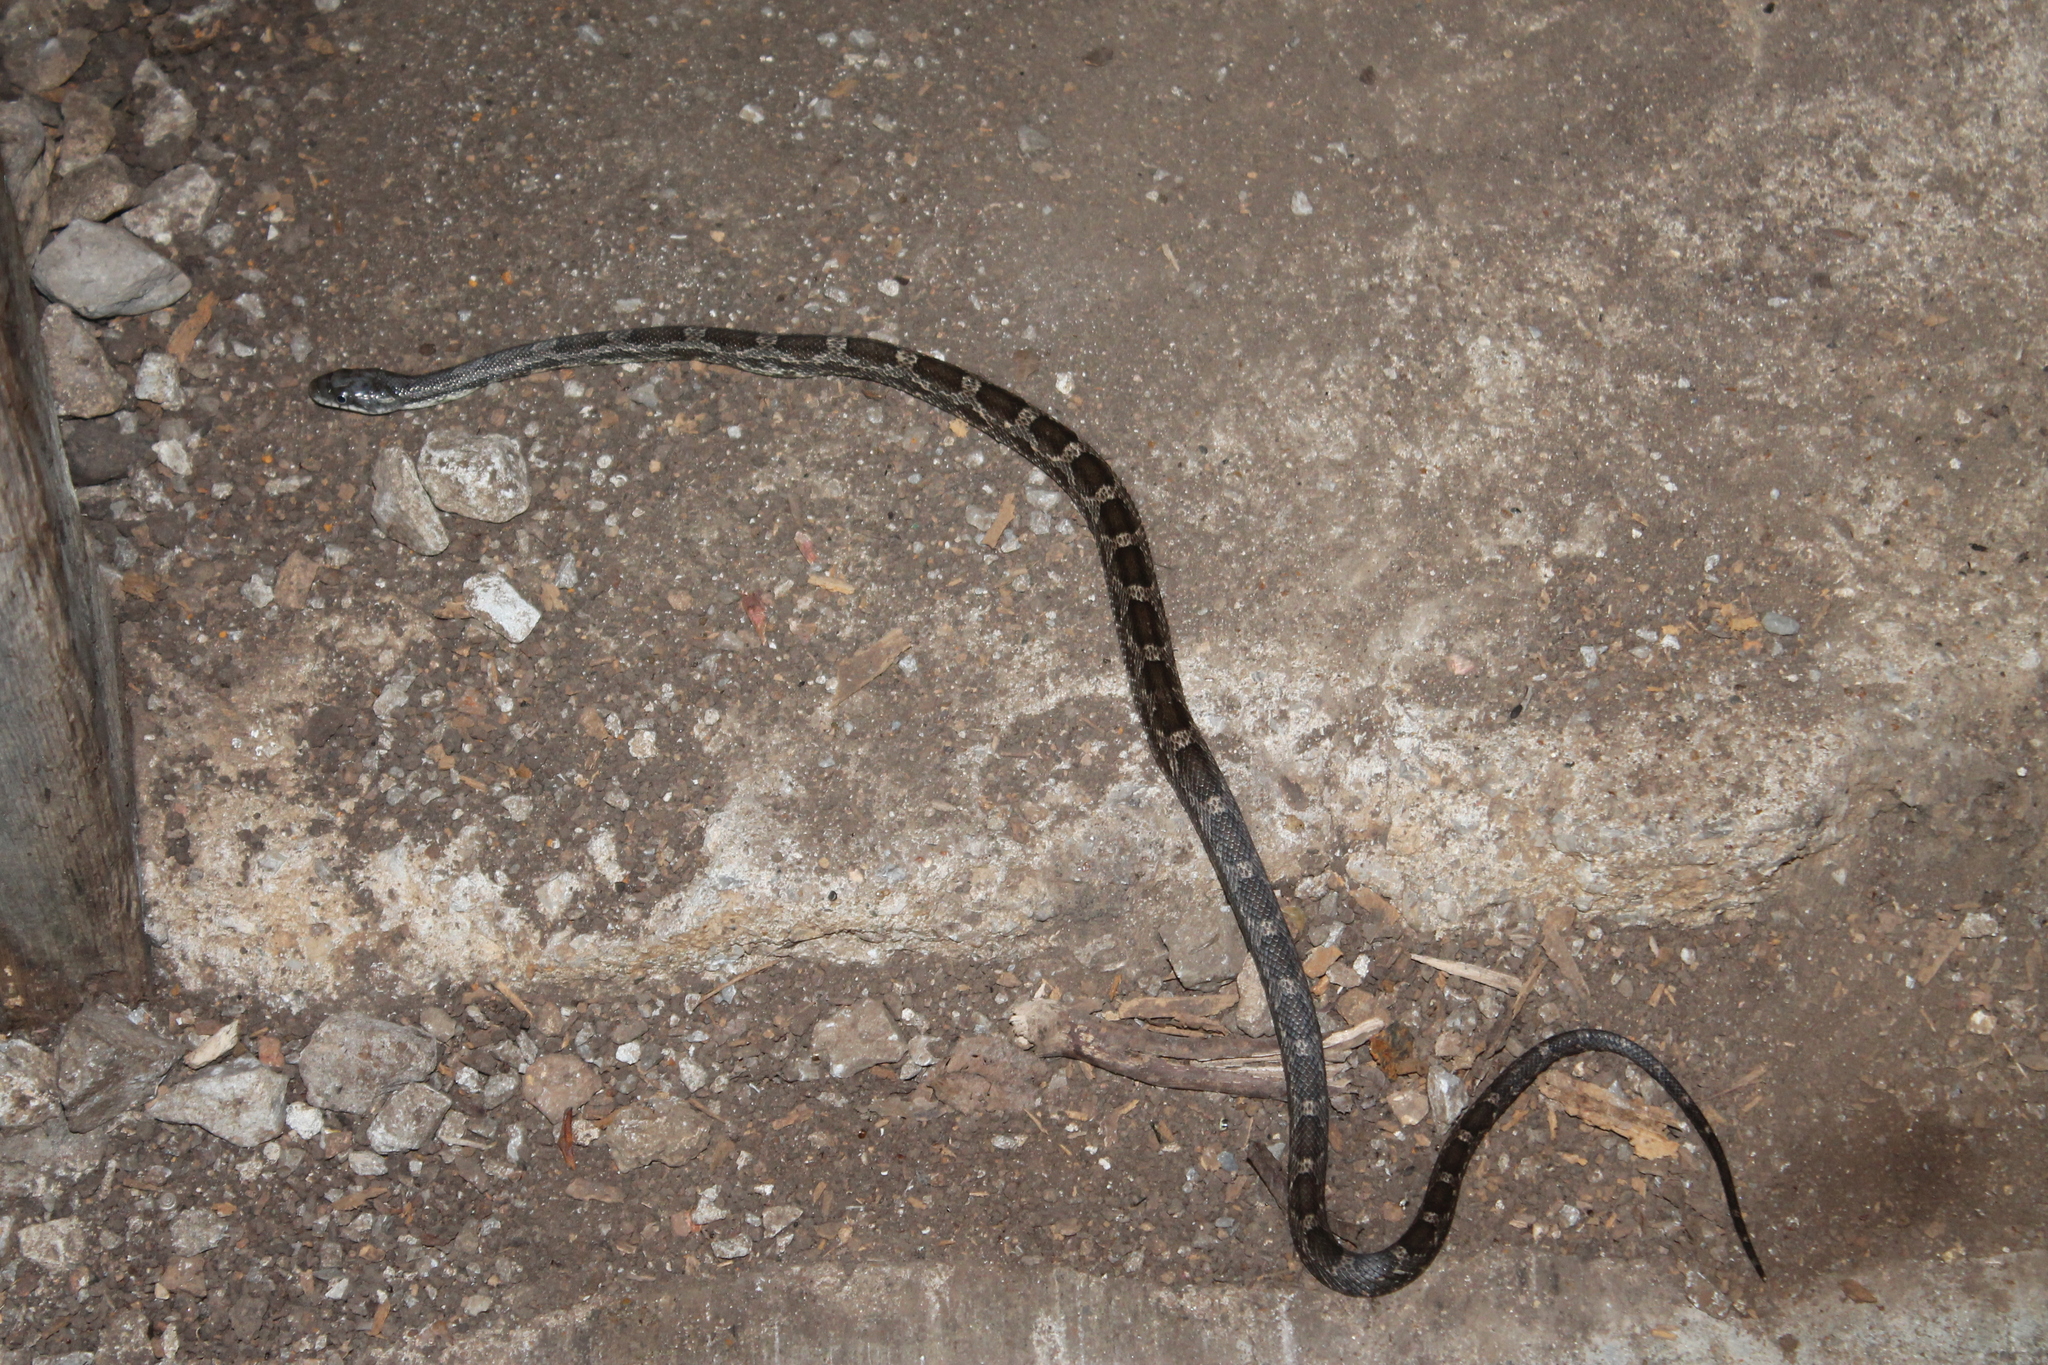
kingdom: Animalia
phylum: Chordata
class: Squamata
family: Colubridae
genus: Pantherophis
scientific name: Pantherophis spiloides
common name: Gray rat snake
